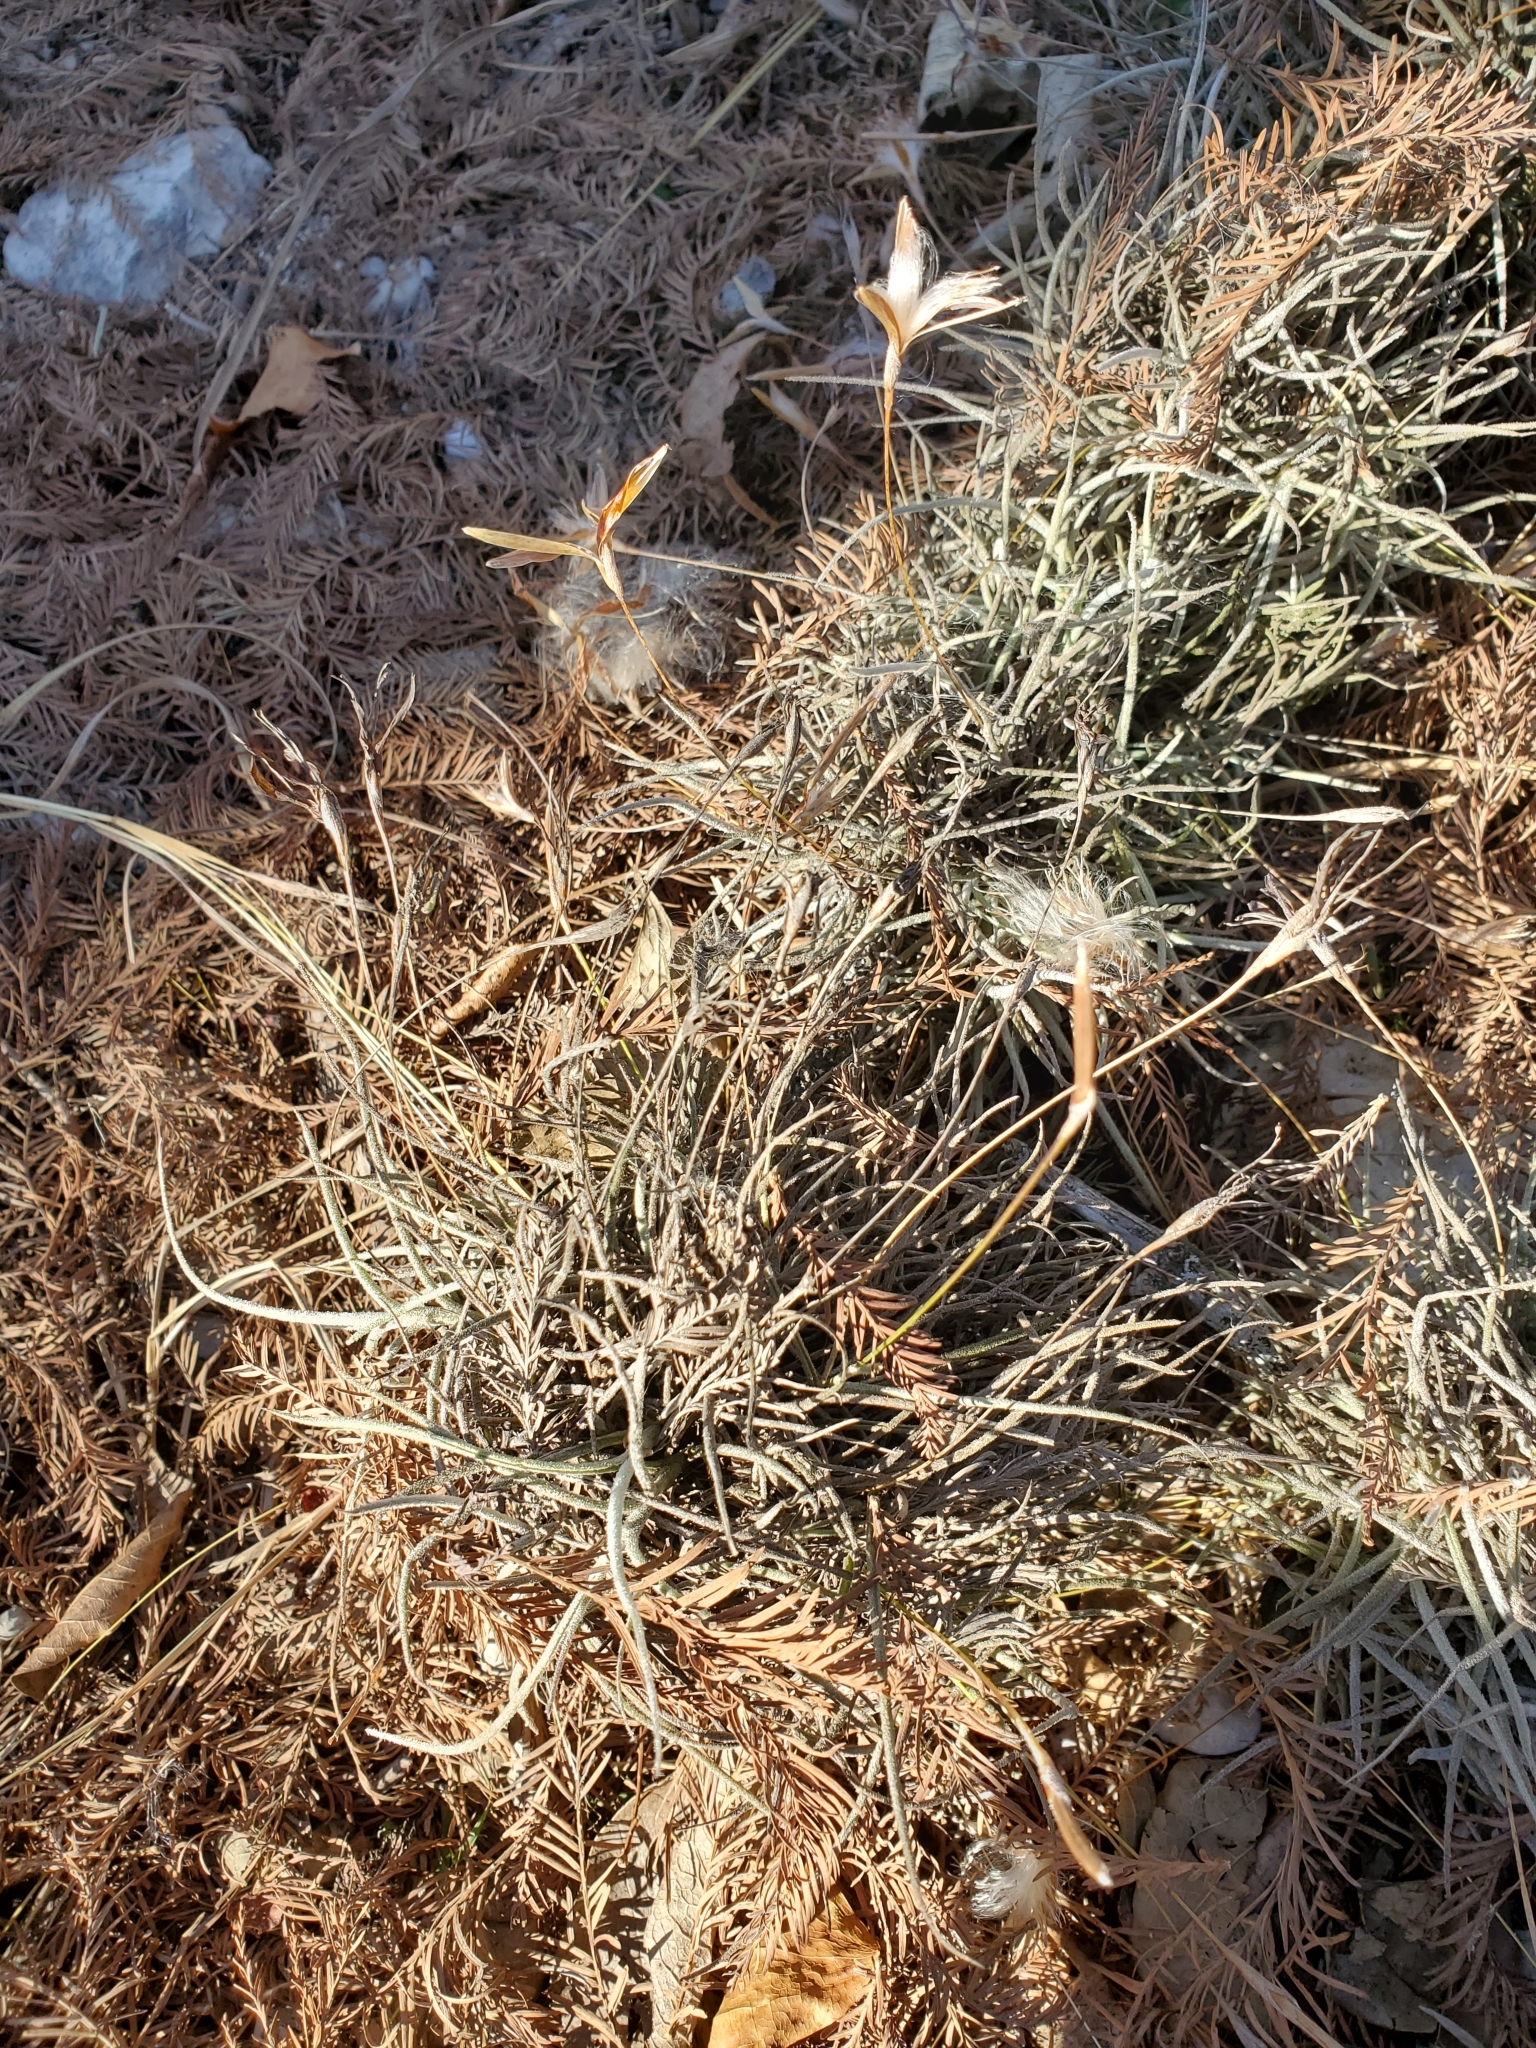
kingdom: Plantae
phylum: Tracheophyta
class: Liliopsida
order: Poales
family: Bromeliaceae
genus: Tillandsia
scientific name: Tillandsia recurvata
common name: Small ballmoss
